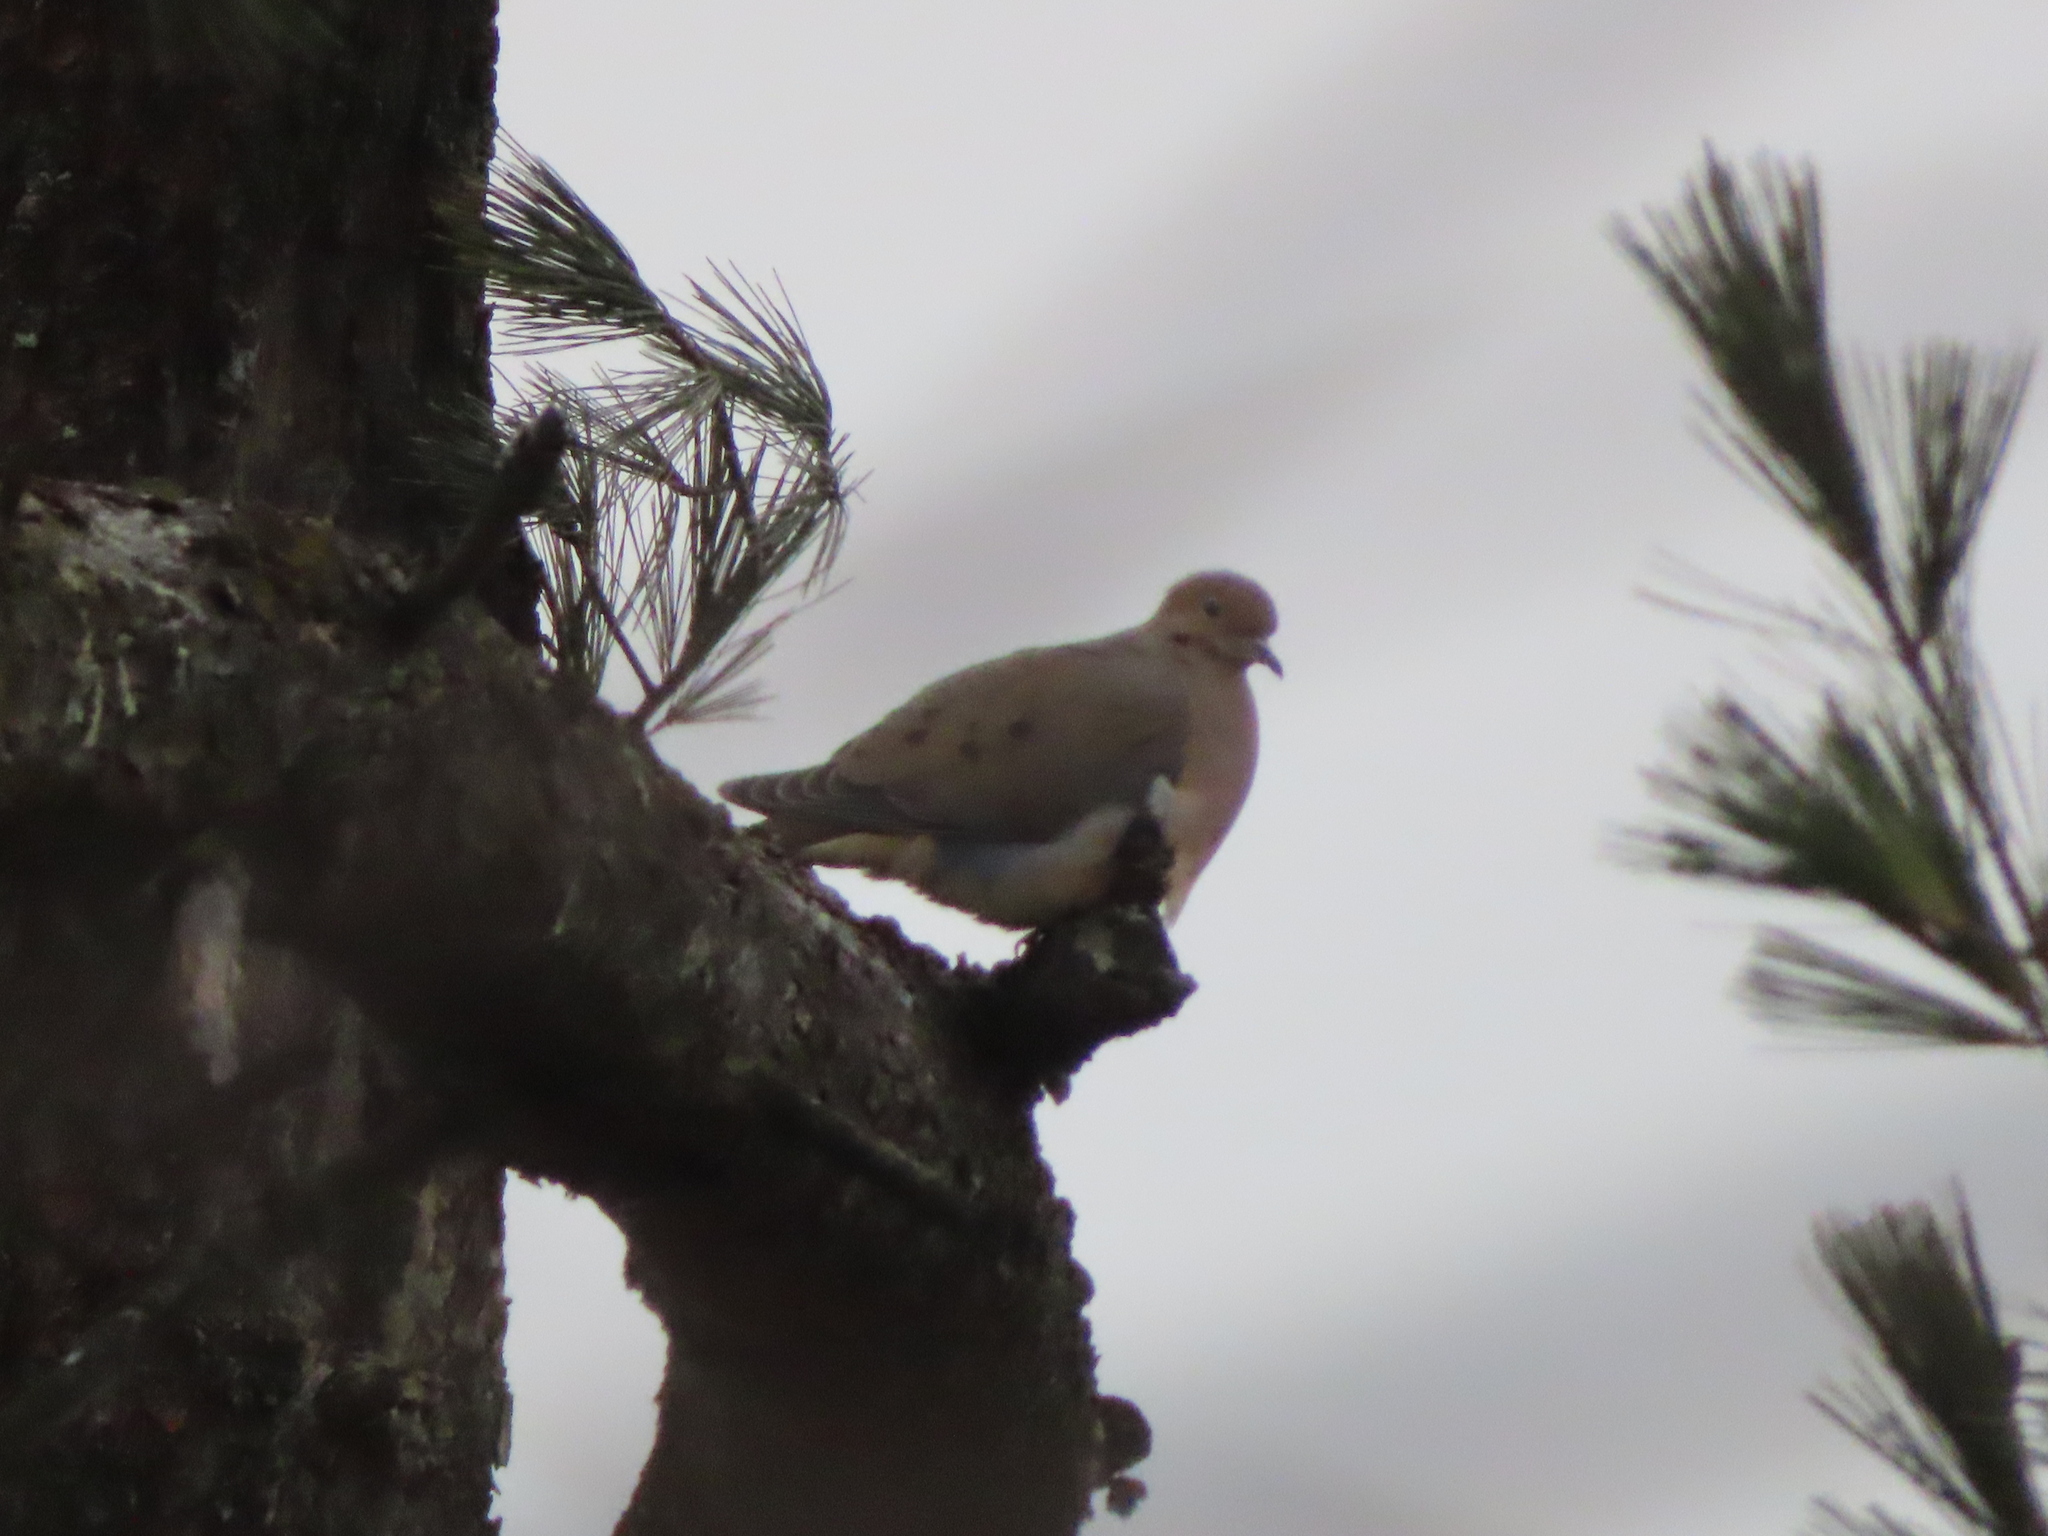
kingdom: Animalia
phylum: Chordata
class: Aves
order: Columbiformes
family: Columbidae
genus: Zenaida
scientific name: Zenaida macroura
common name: Mourning dove
